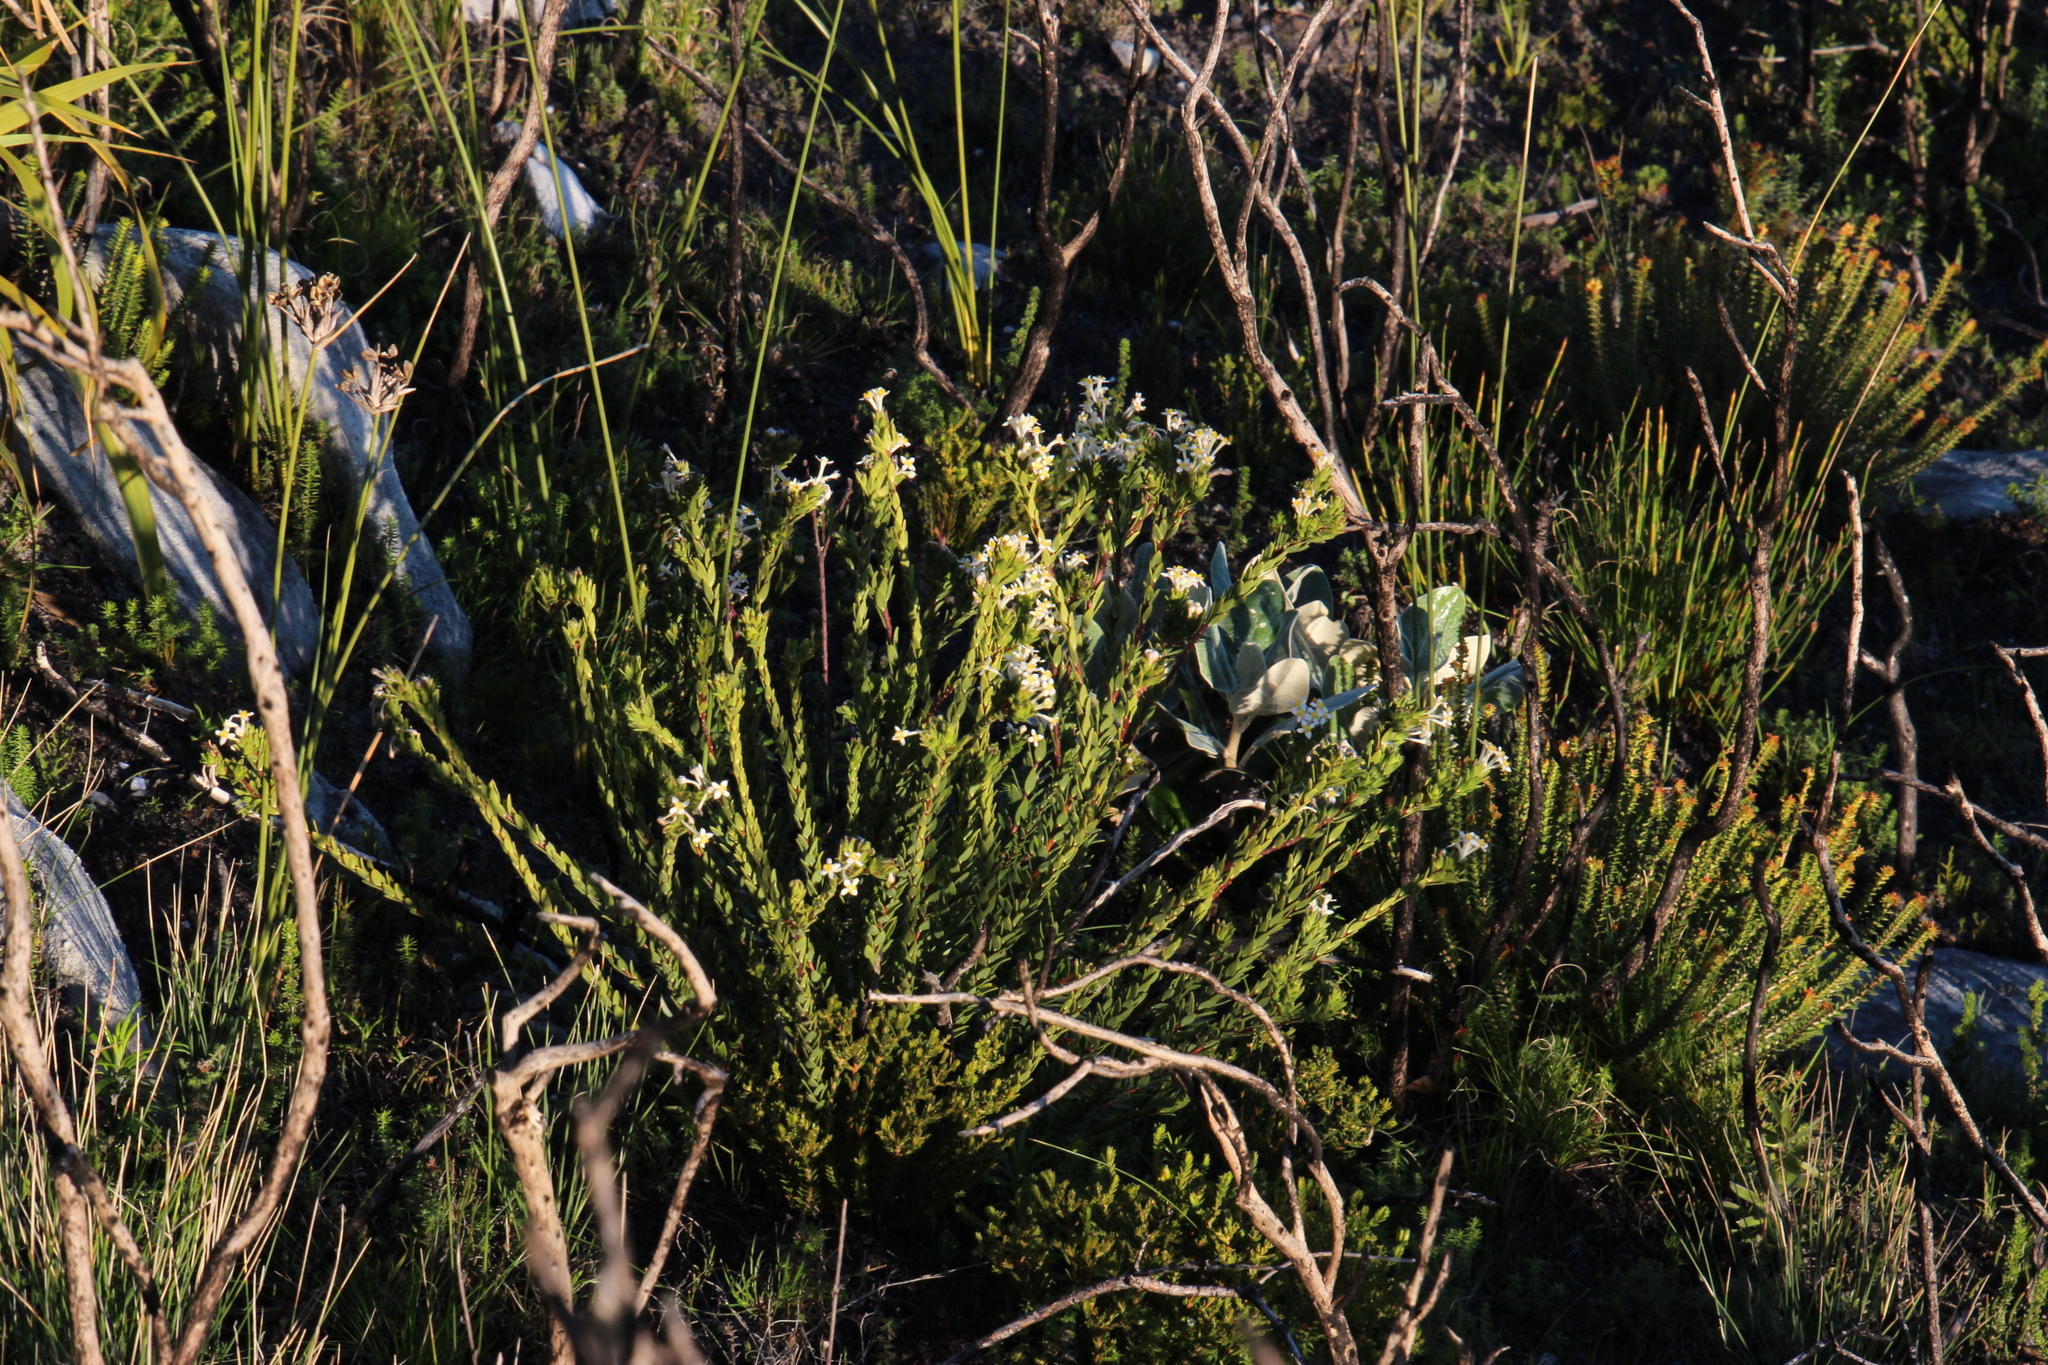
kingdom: Plantae
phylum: Tracheophyta
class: Magnoliopsida
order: Malvales
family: Thymelaeaceae
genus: Gnidia
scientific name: Gnidia tomentosa
